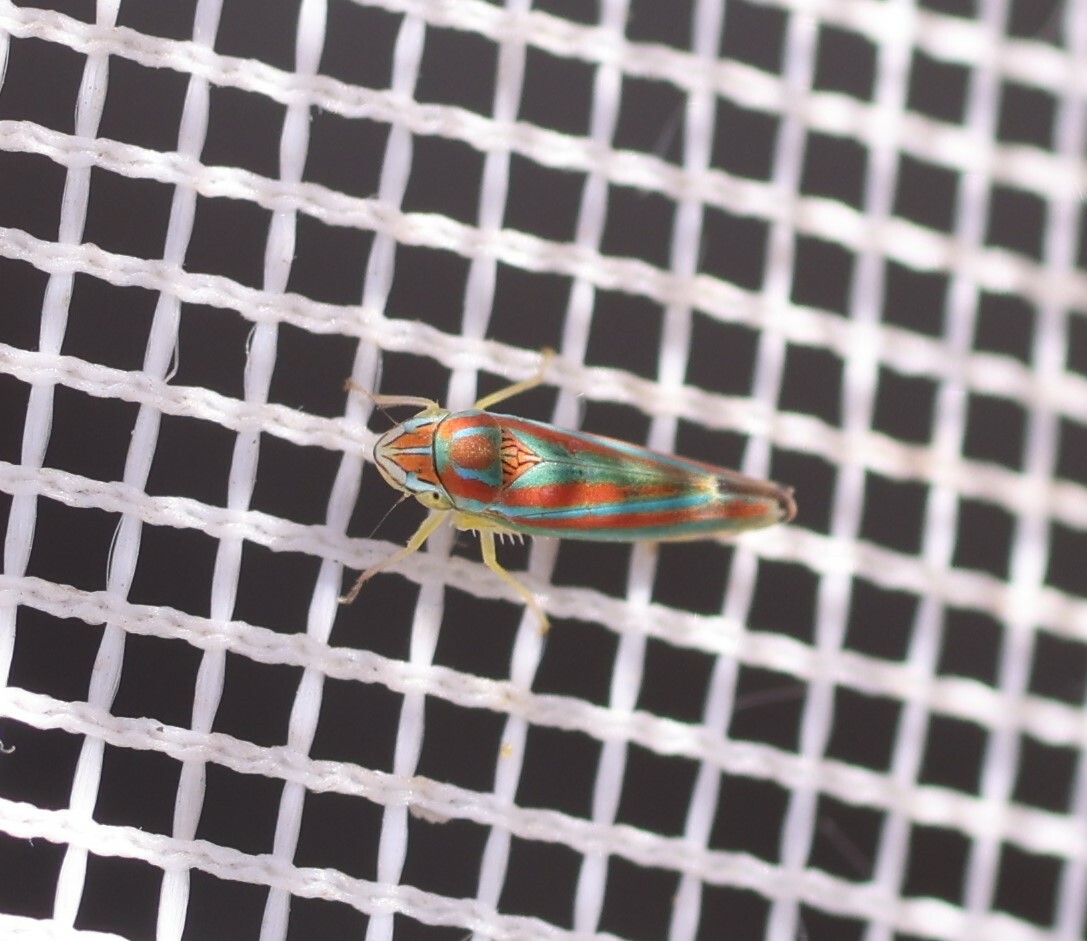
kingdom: Animalia
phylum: Arthropoda
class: Insecta
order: Hemiptera
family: Cicadellidae
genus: Graphocephala
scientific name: Graphocephala versuta
